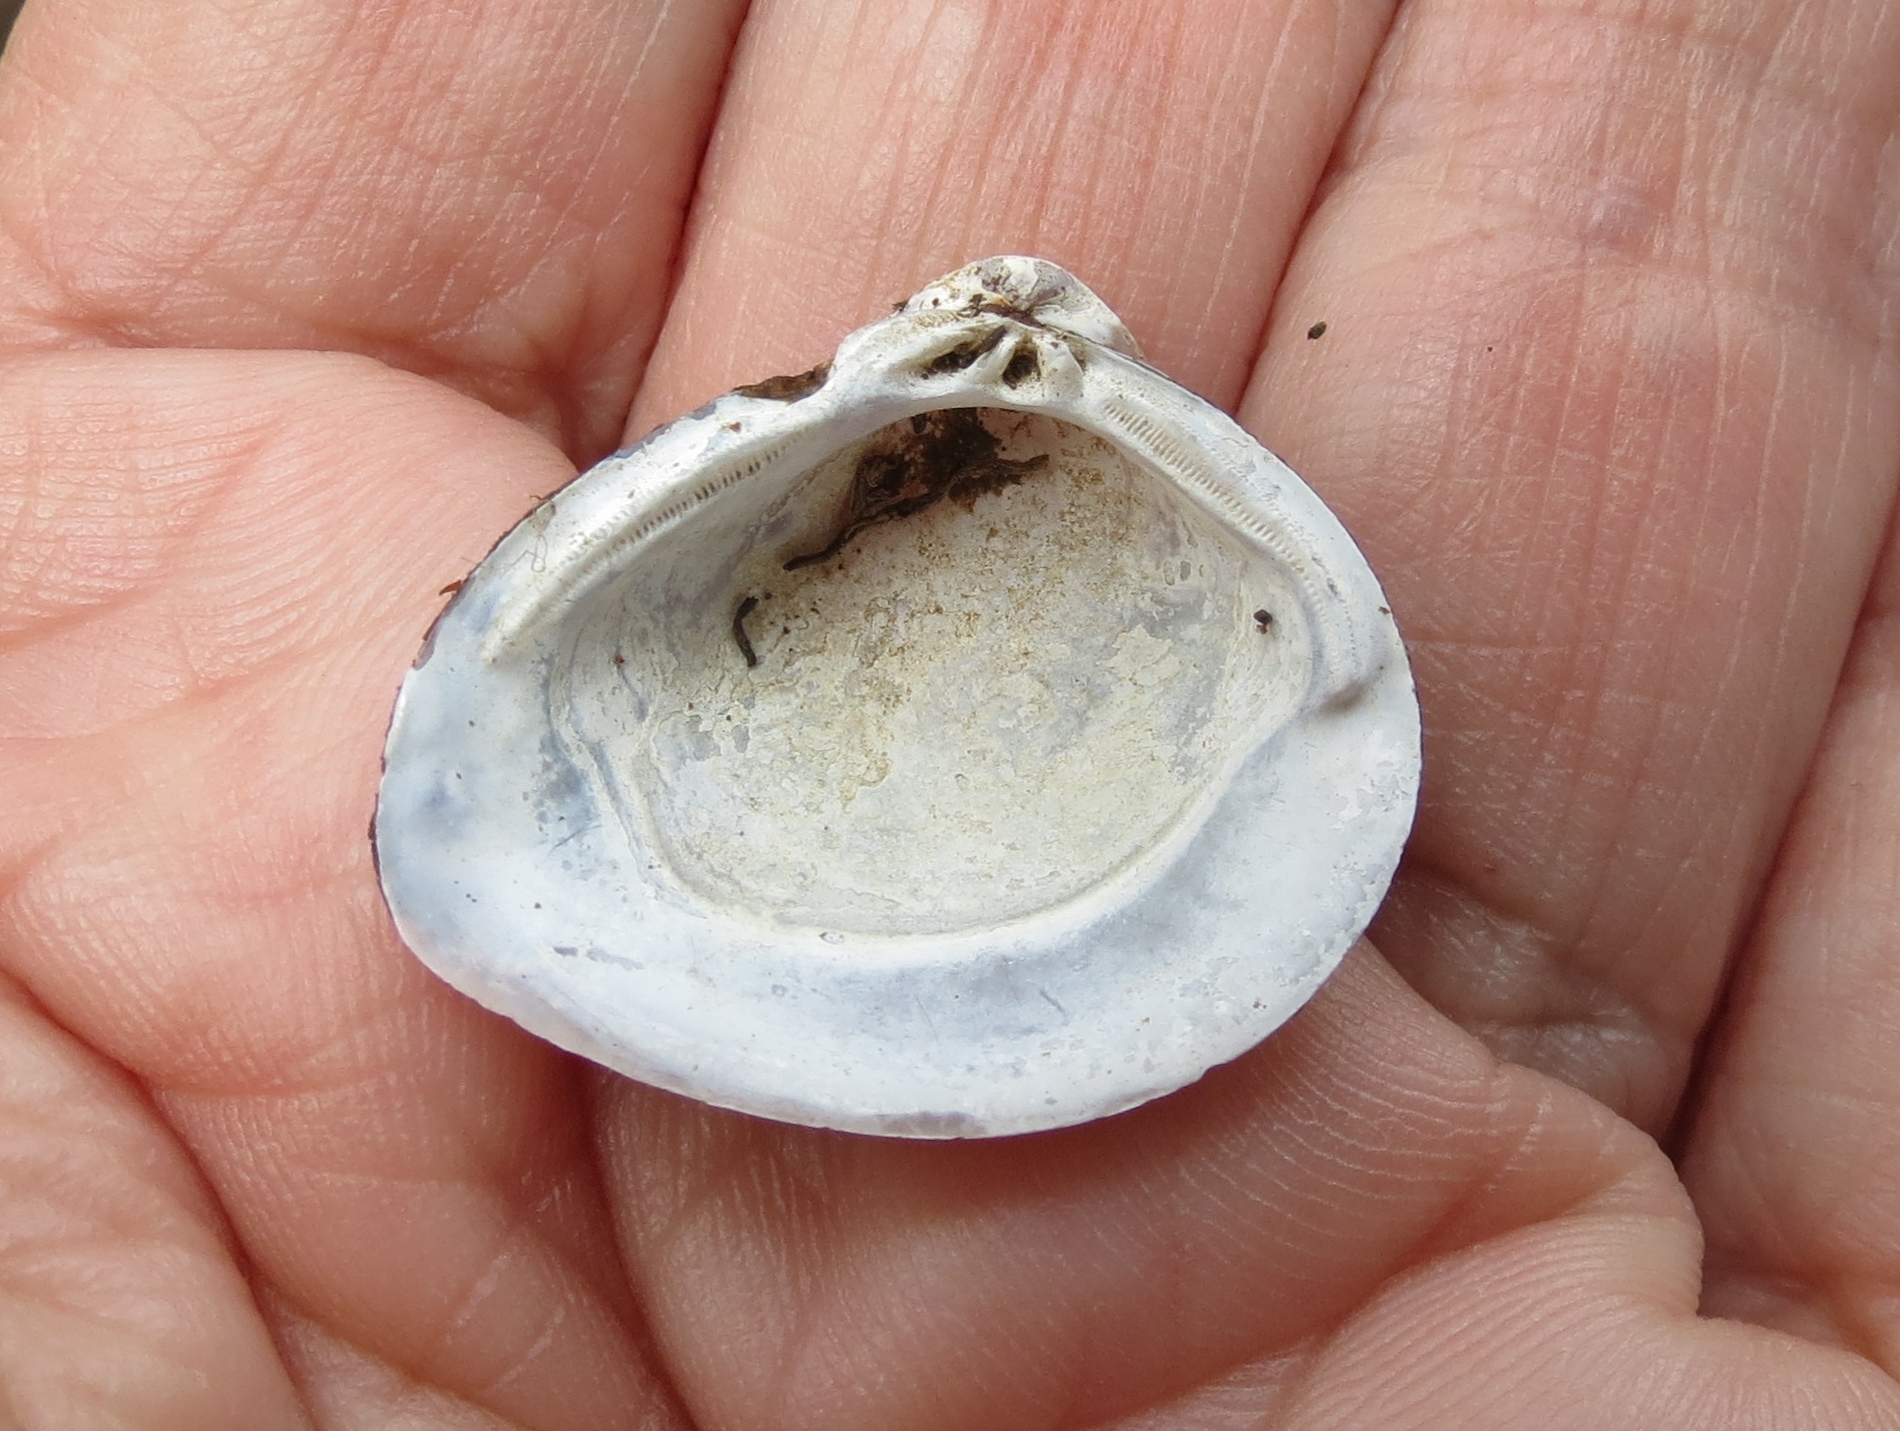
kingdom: Animalia
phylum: Mollusca
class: Bivalvia
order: Venerida
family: Cyrenidae
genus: Corbicula
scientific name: Corbicula fluminea
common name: Asian clam
